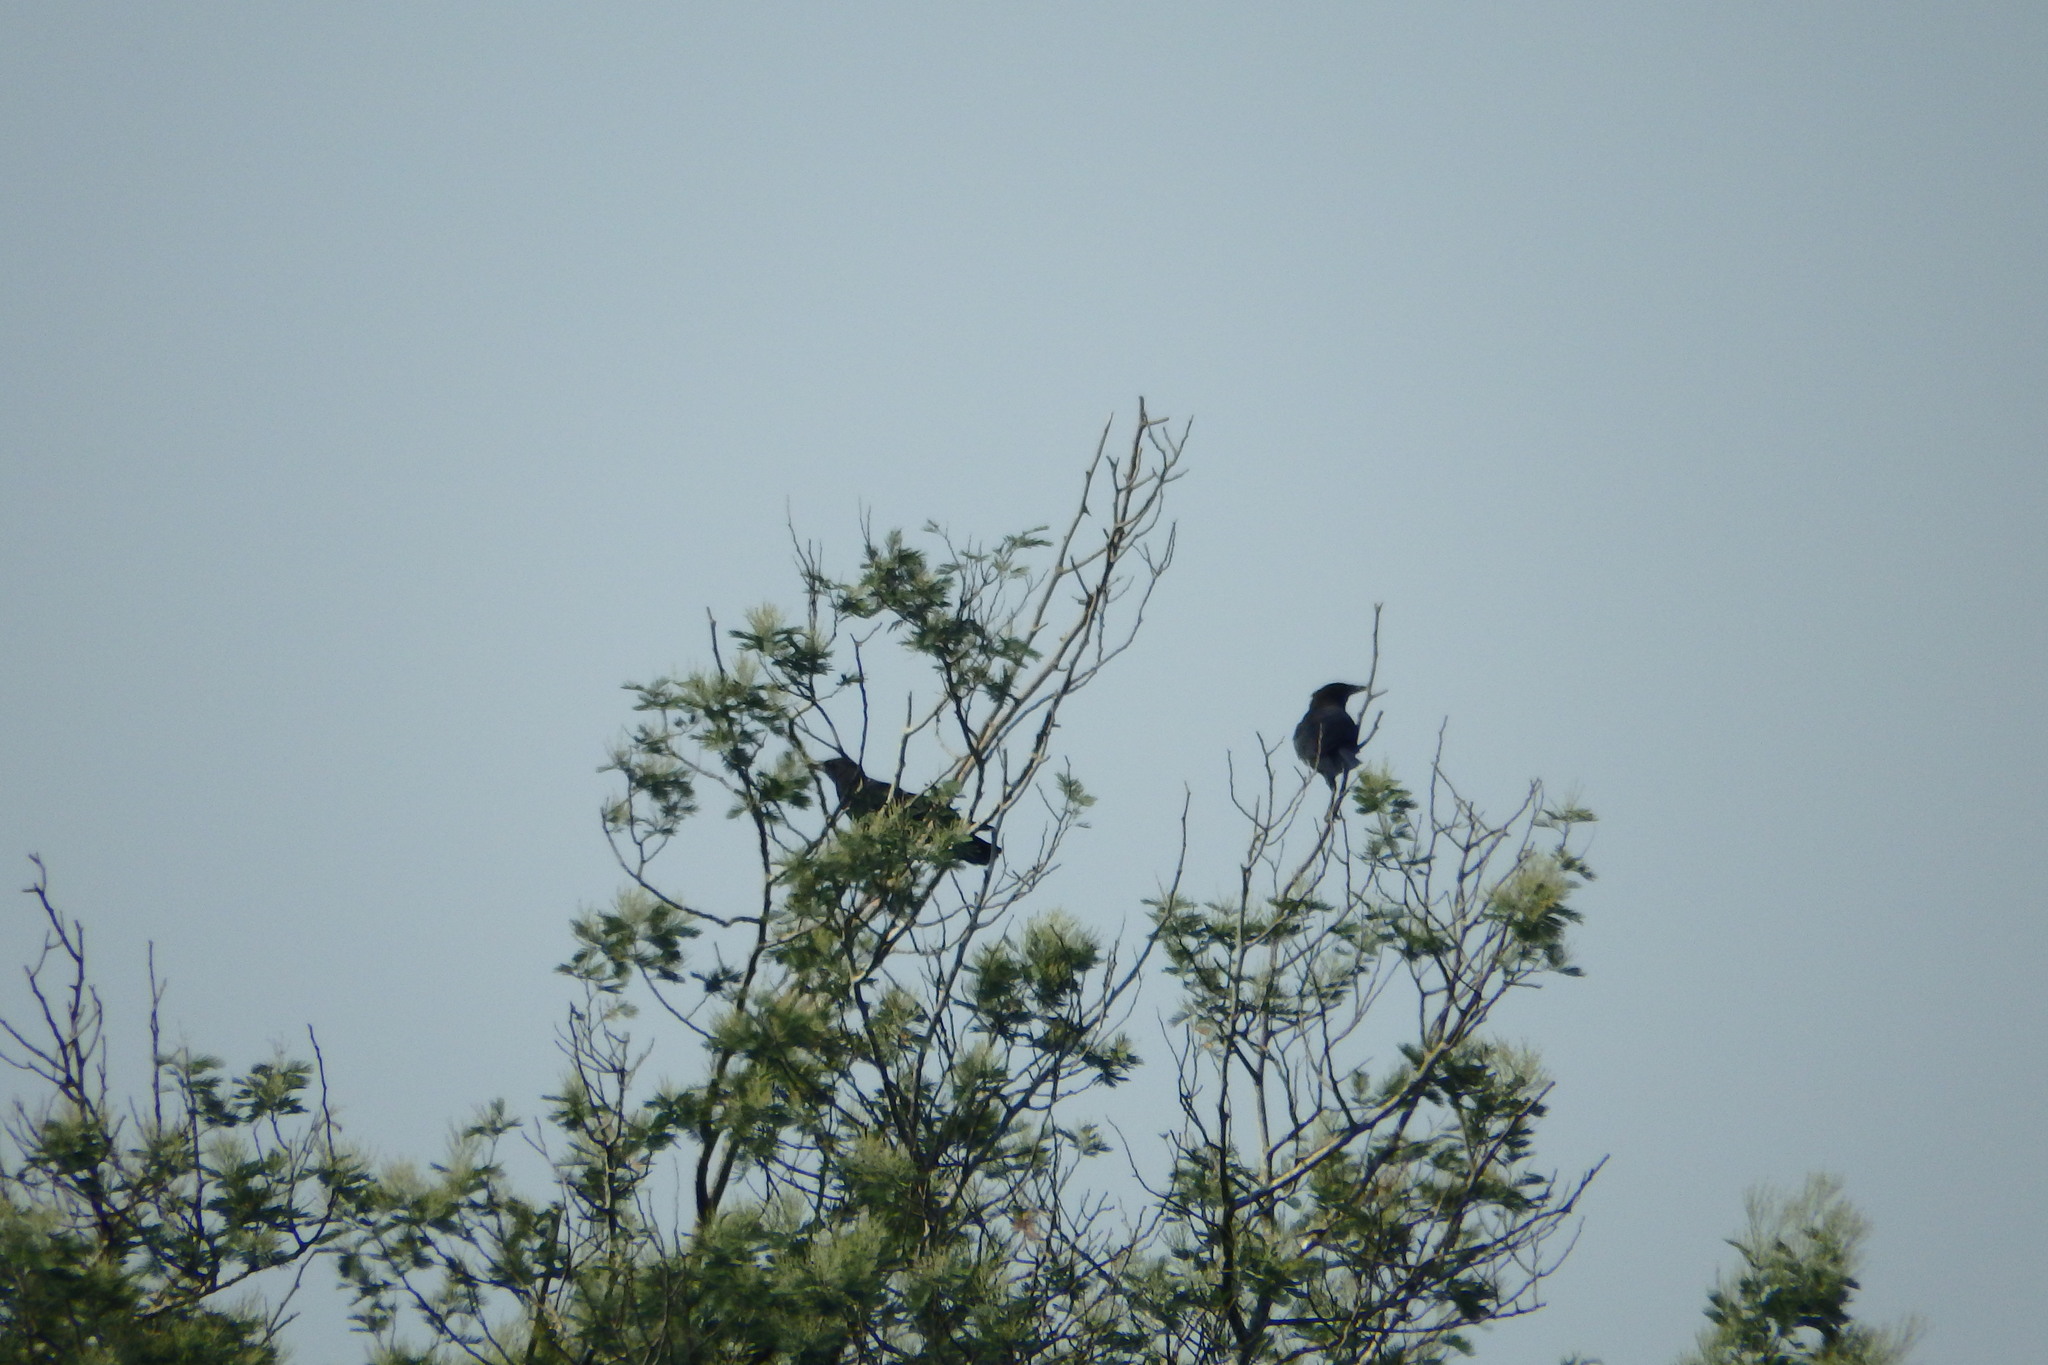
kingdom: Animalia
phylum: Chordata
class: Aves
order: Passeriformes
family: Corvidae
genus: Corvus
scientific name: Corvus corone
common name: Carrion crow
